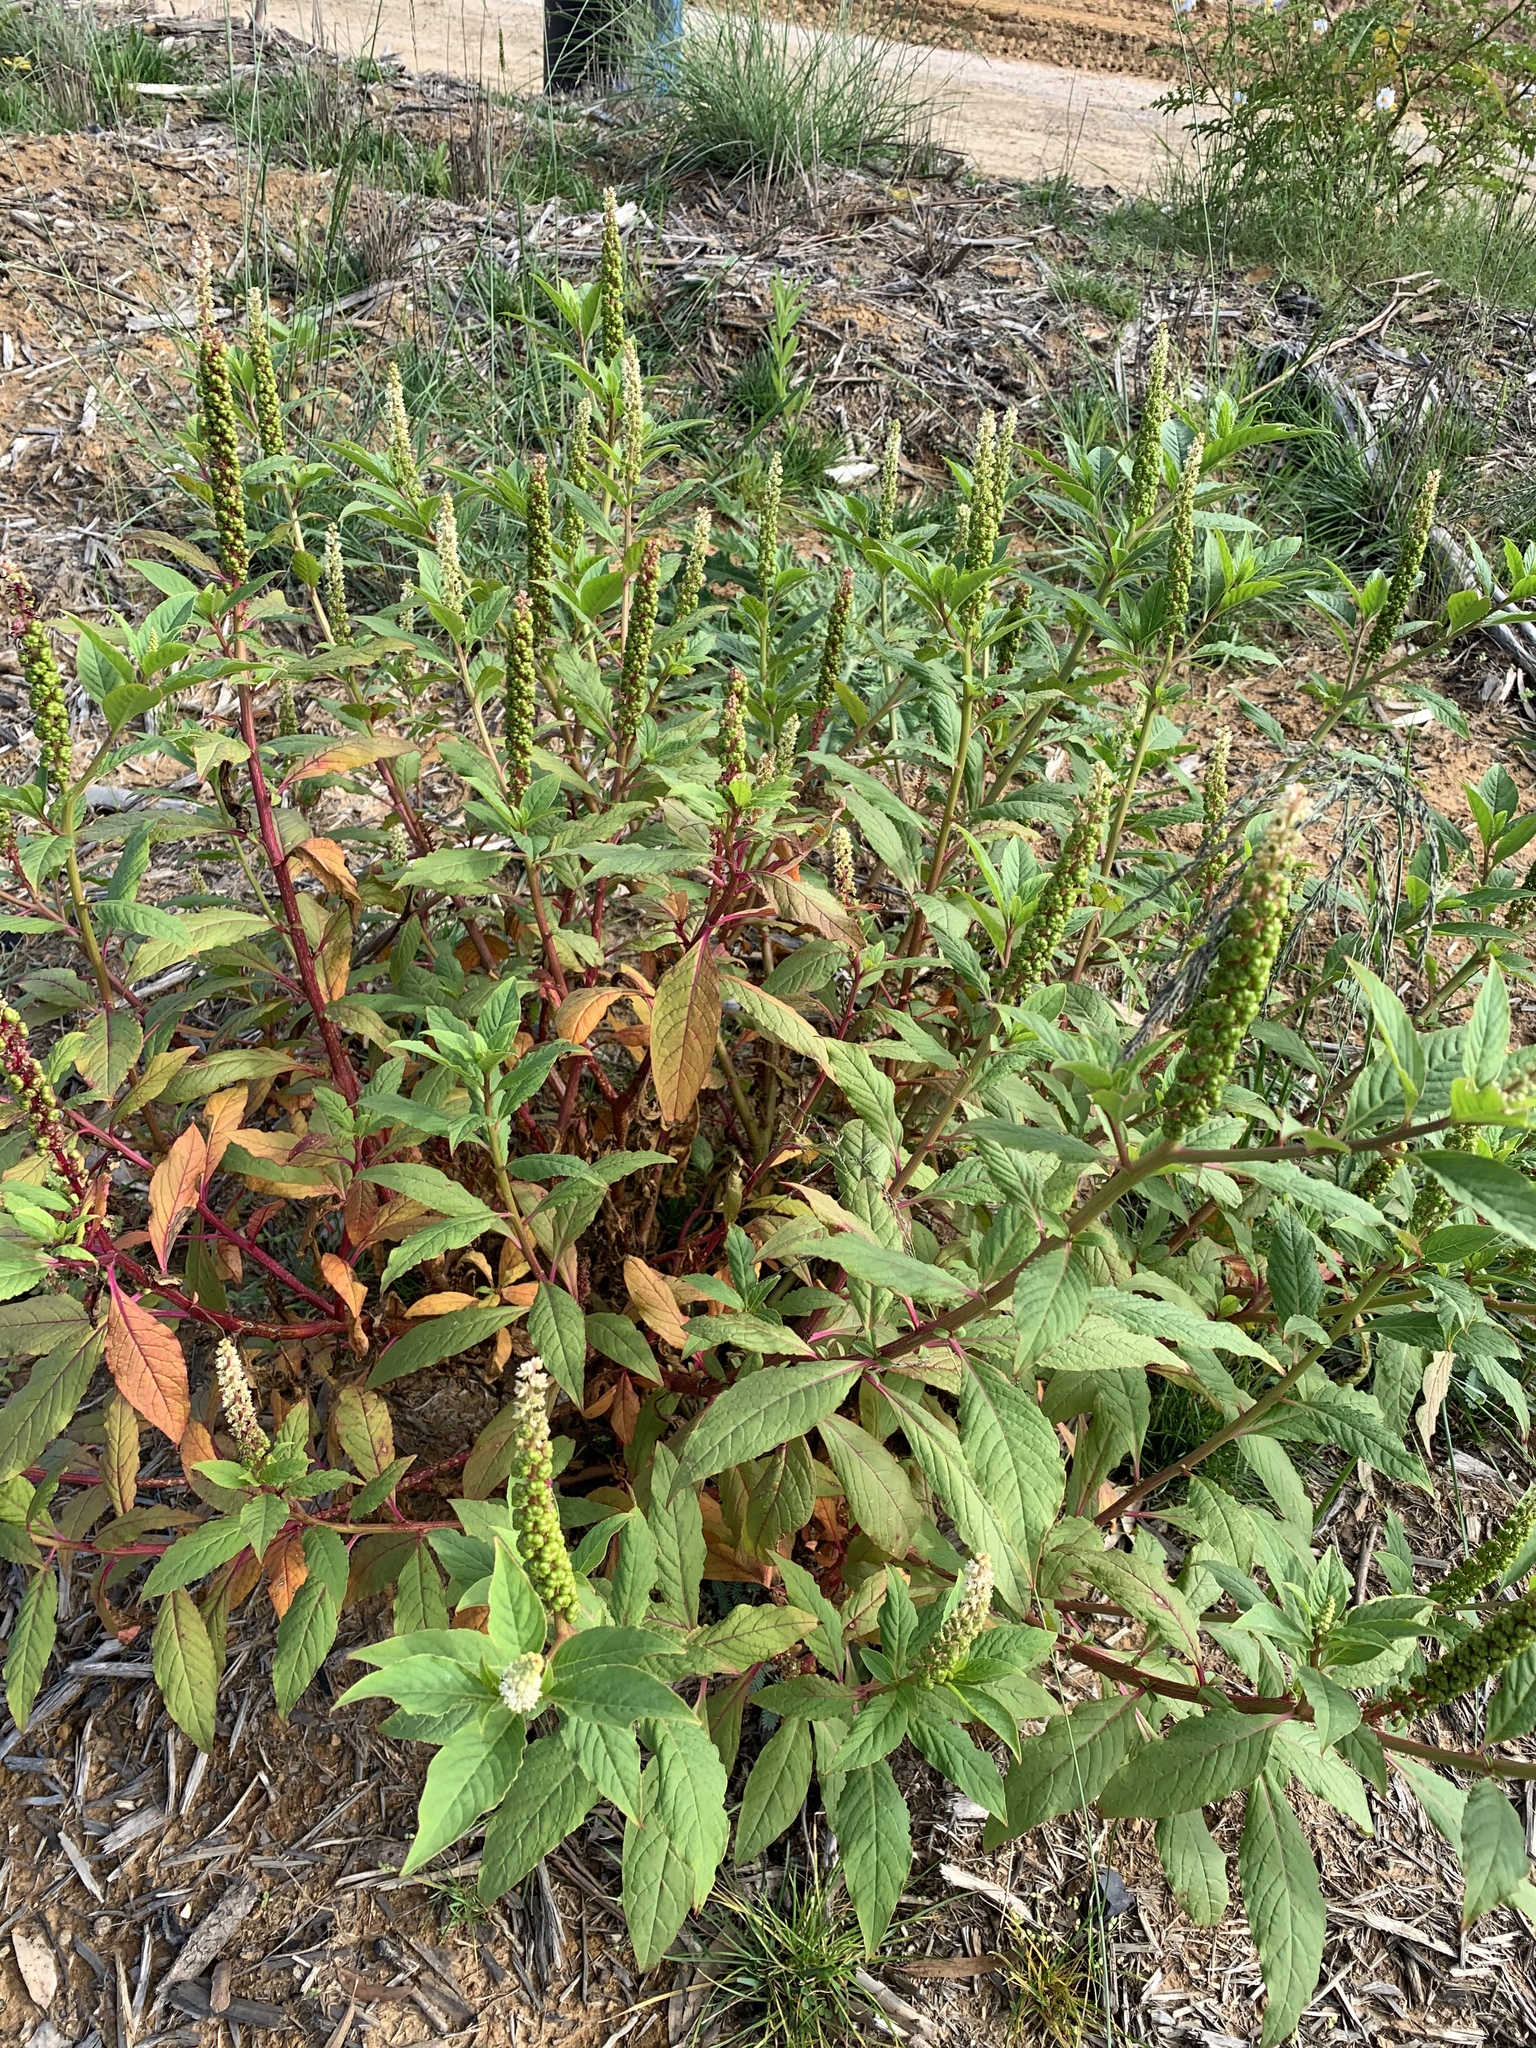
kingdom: Plantae
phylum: Tracheophyta
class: Magnoliopsida
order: Caryophyllales
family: Phytolaccaceae
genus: Phytolacca
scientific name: Phytolacca icosandra
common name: Button pokeweed
